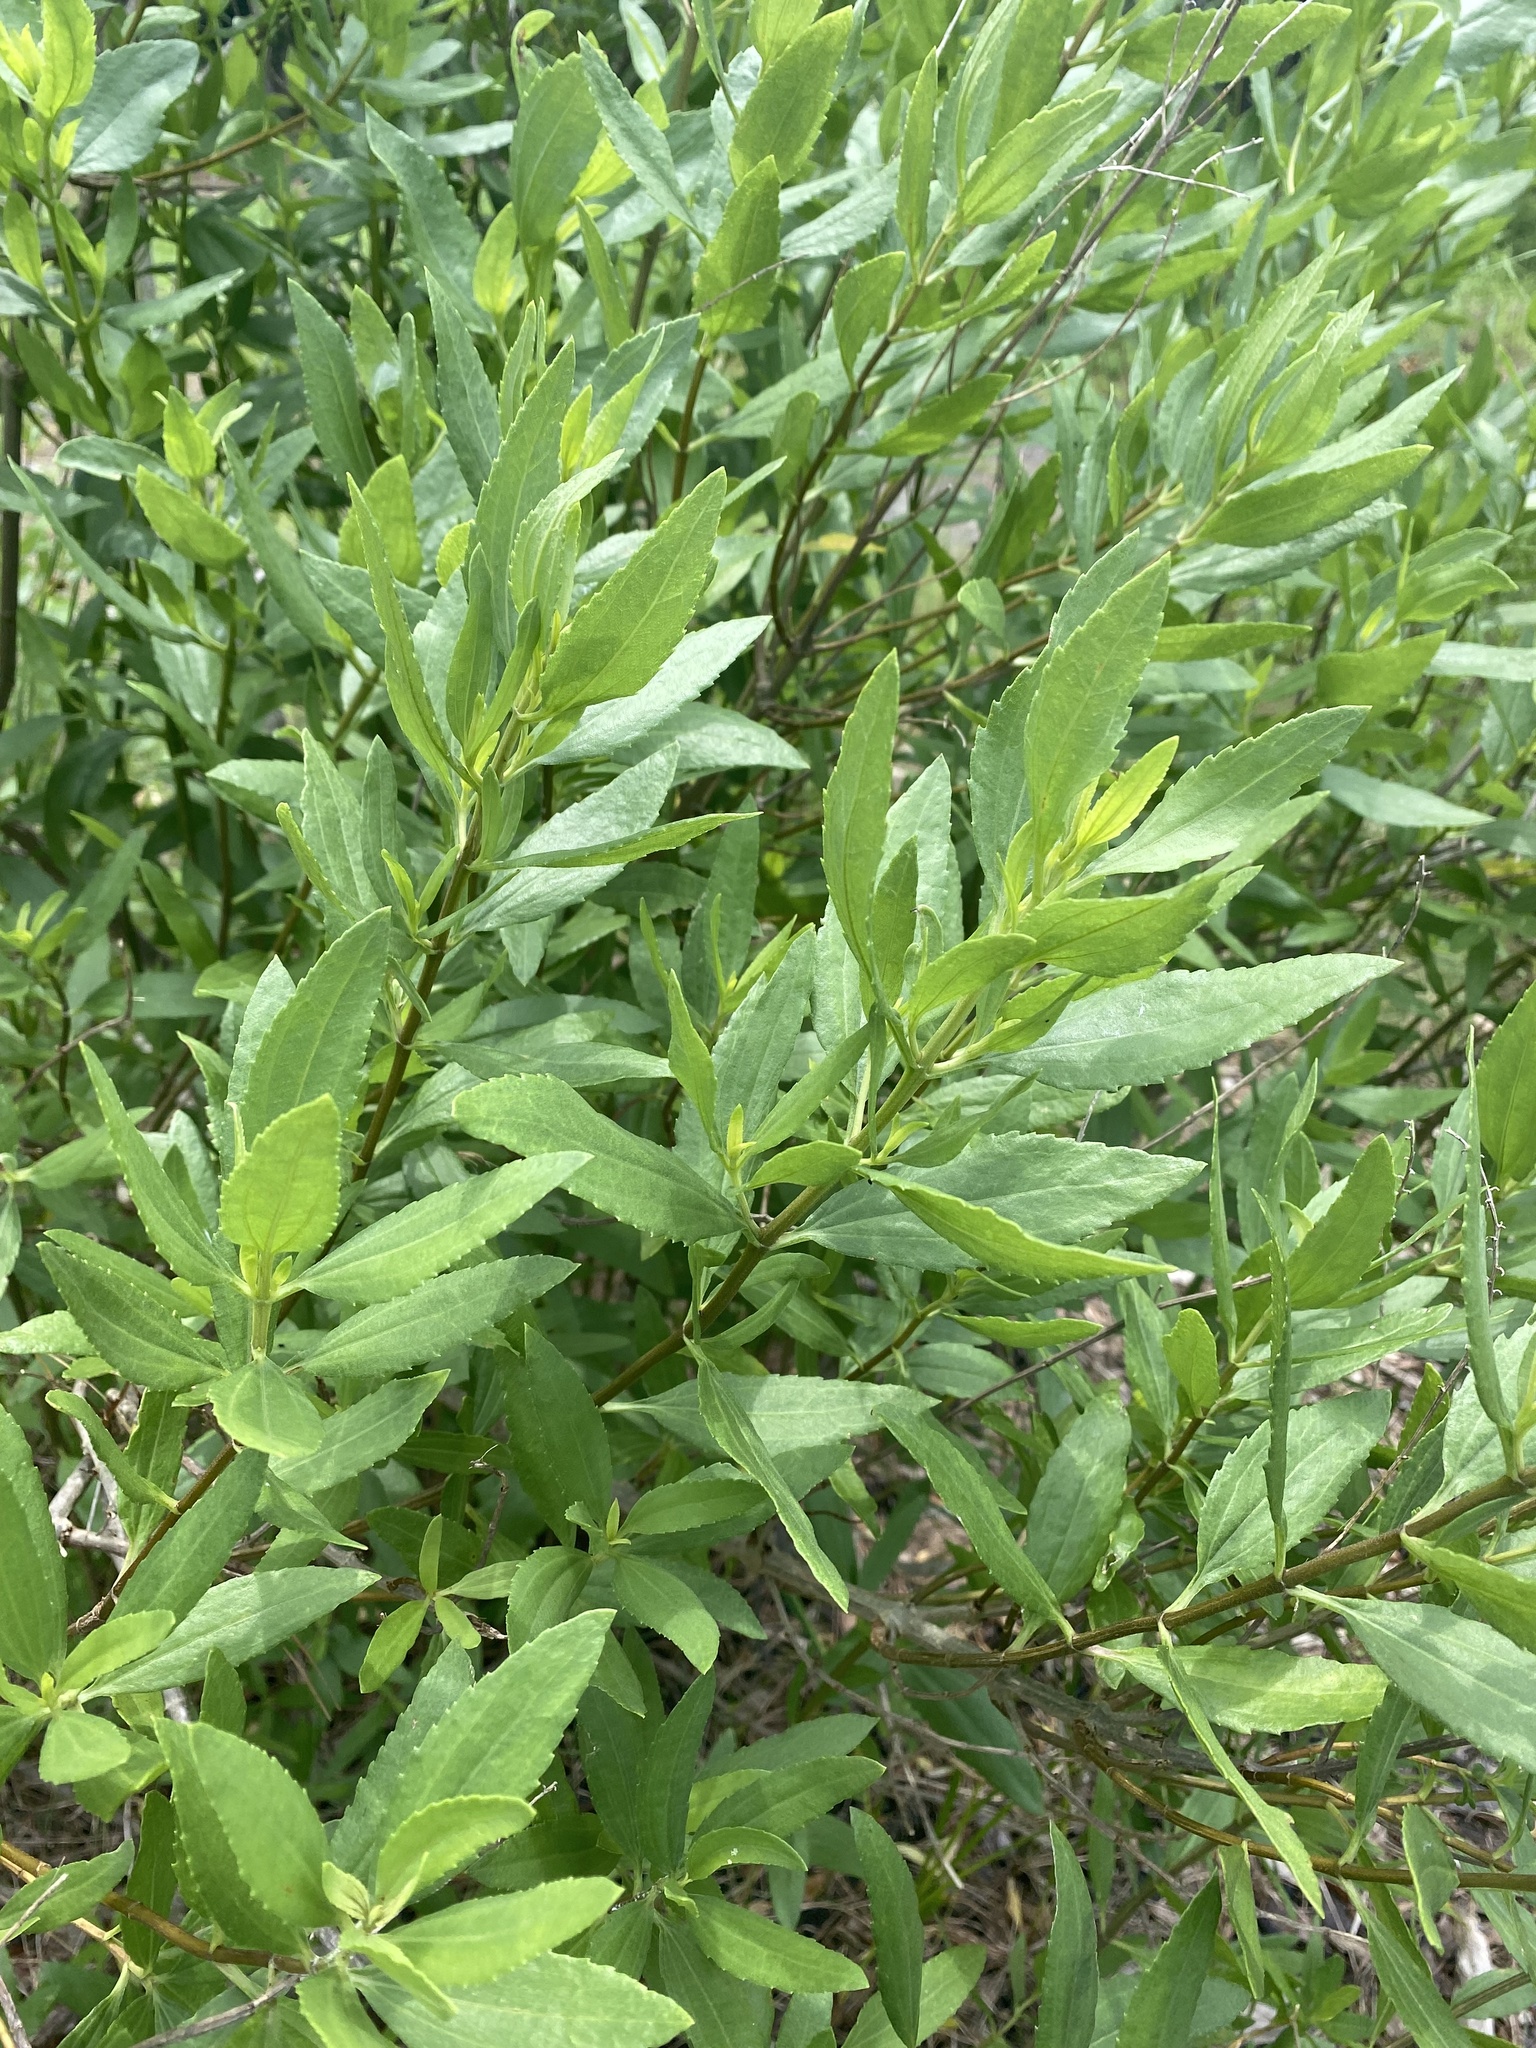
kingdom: Plantae
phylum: Tracheophyta
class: Magnoliopsida
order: Asterales
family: Asteraceae
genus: Iva
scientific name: Iva frutescens
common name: Big-leaved marsh-elder
